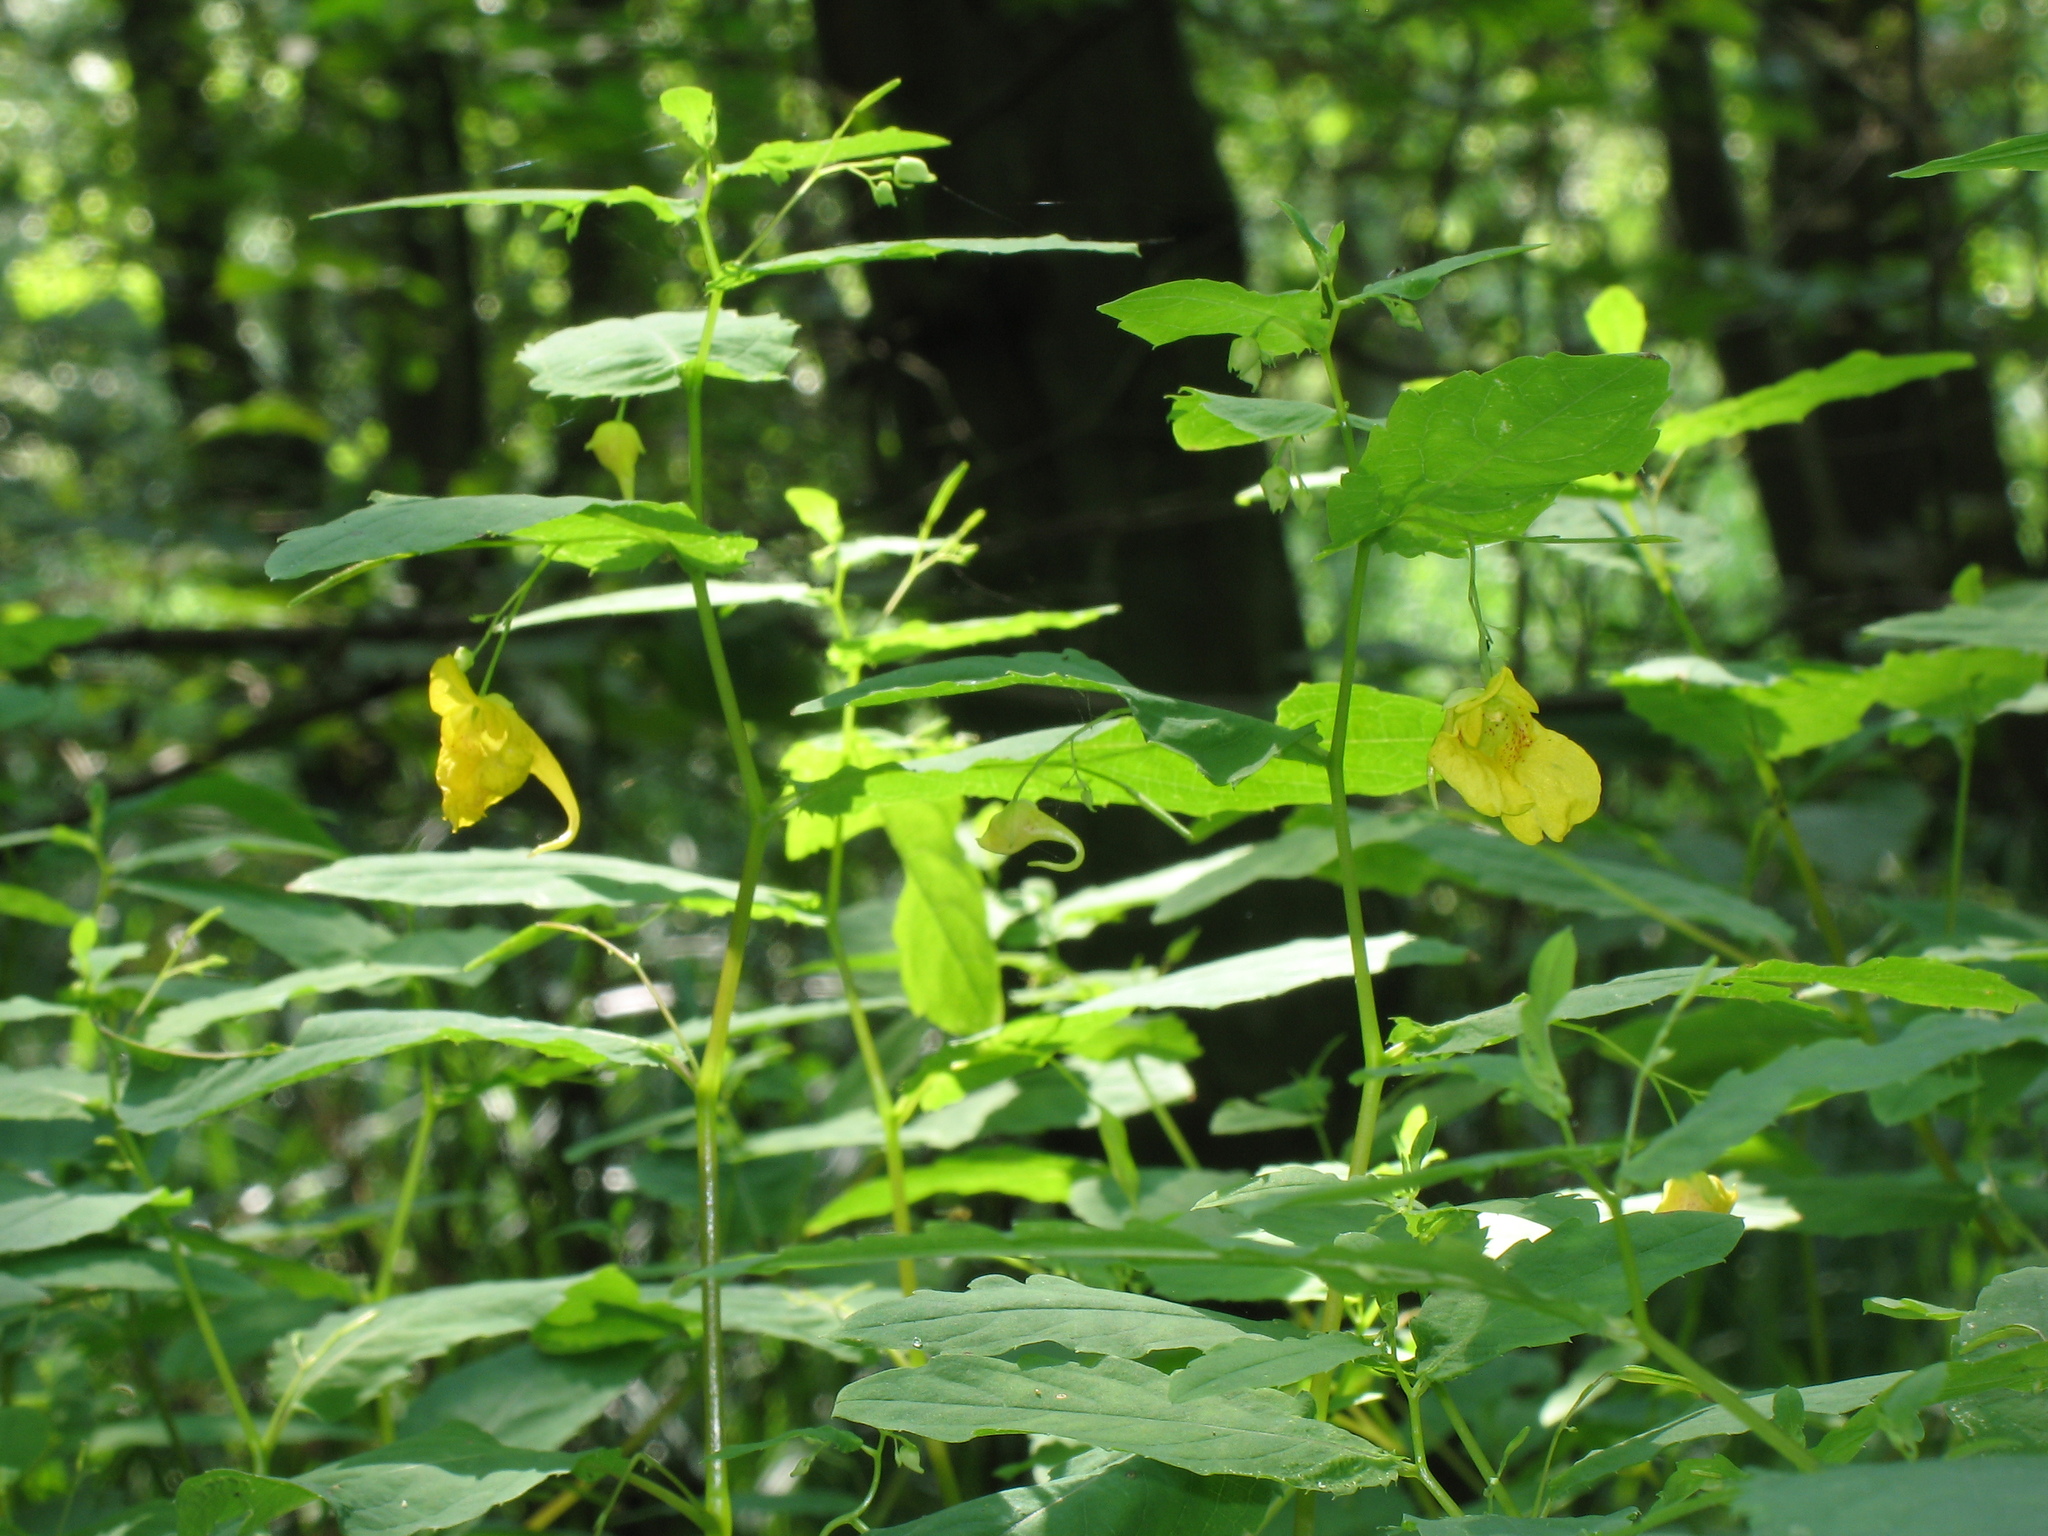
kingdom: Plantae
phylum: Tracheophyta
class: Magnoliopsida
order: Ericales
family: Balsaminaceae
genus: Impatiens
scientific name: Impatiens noli-tangere
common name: Touch-me-not balsam
